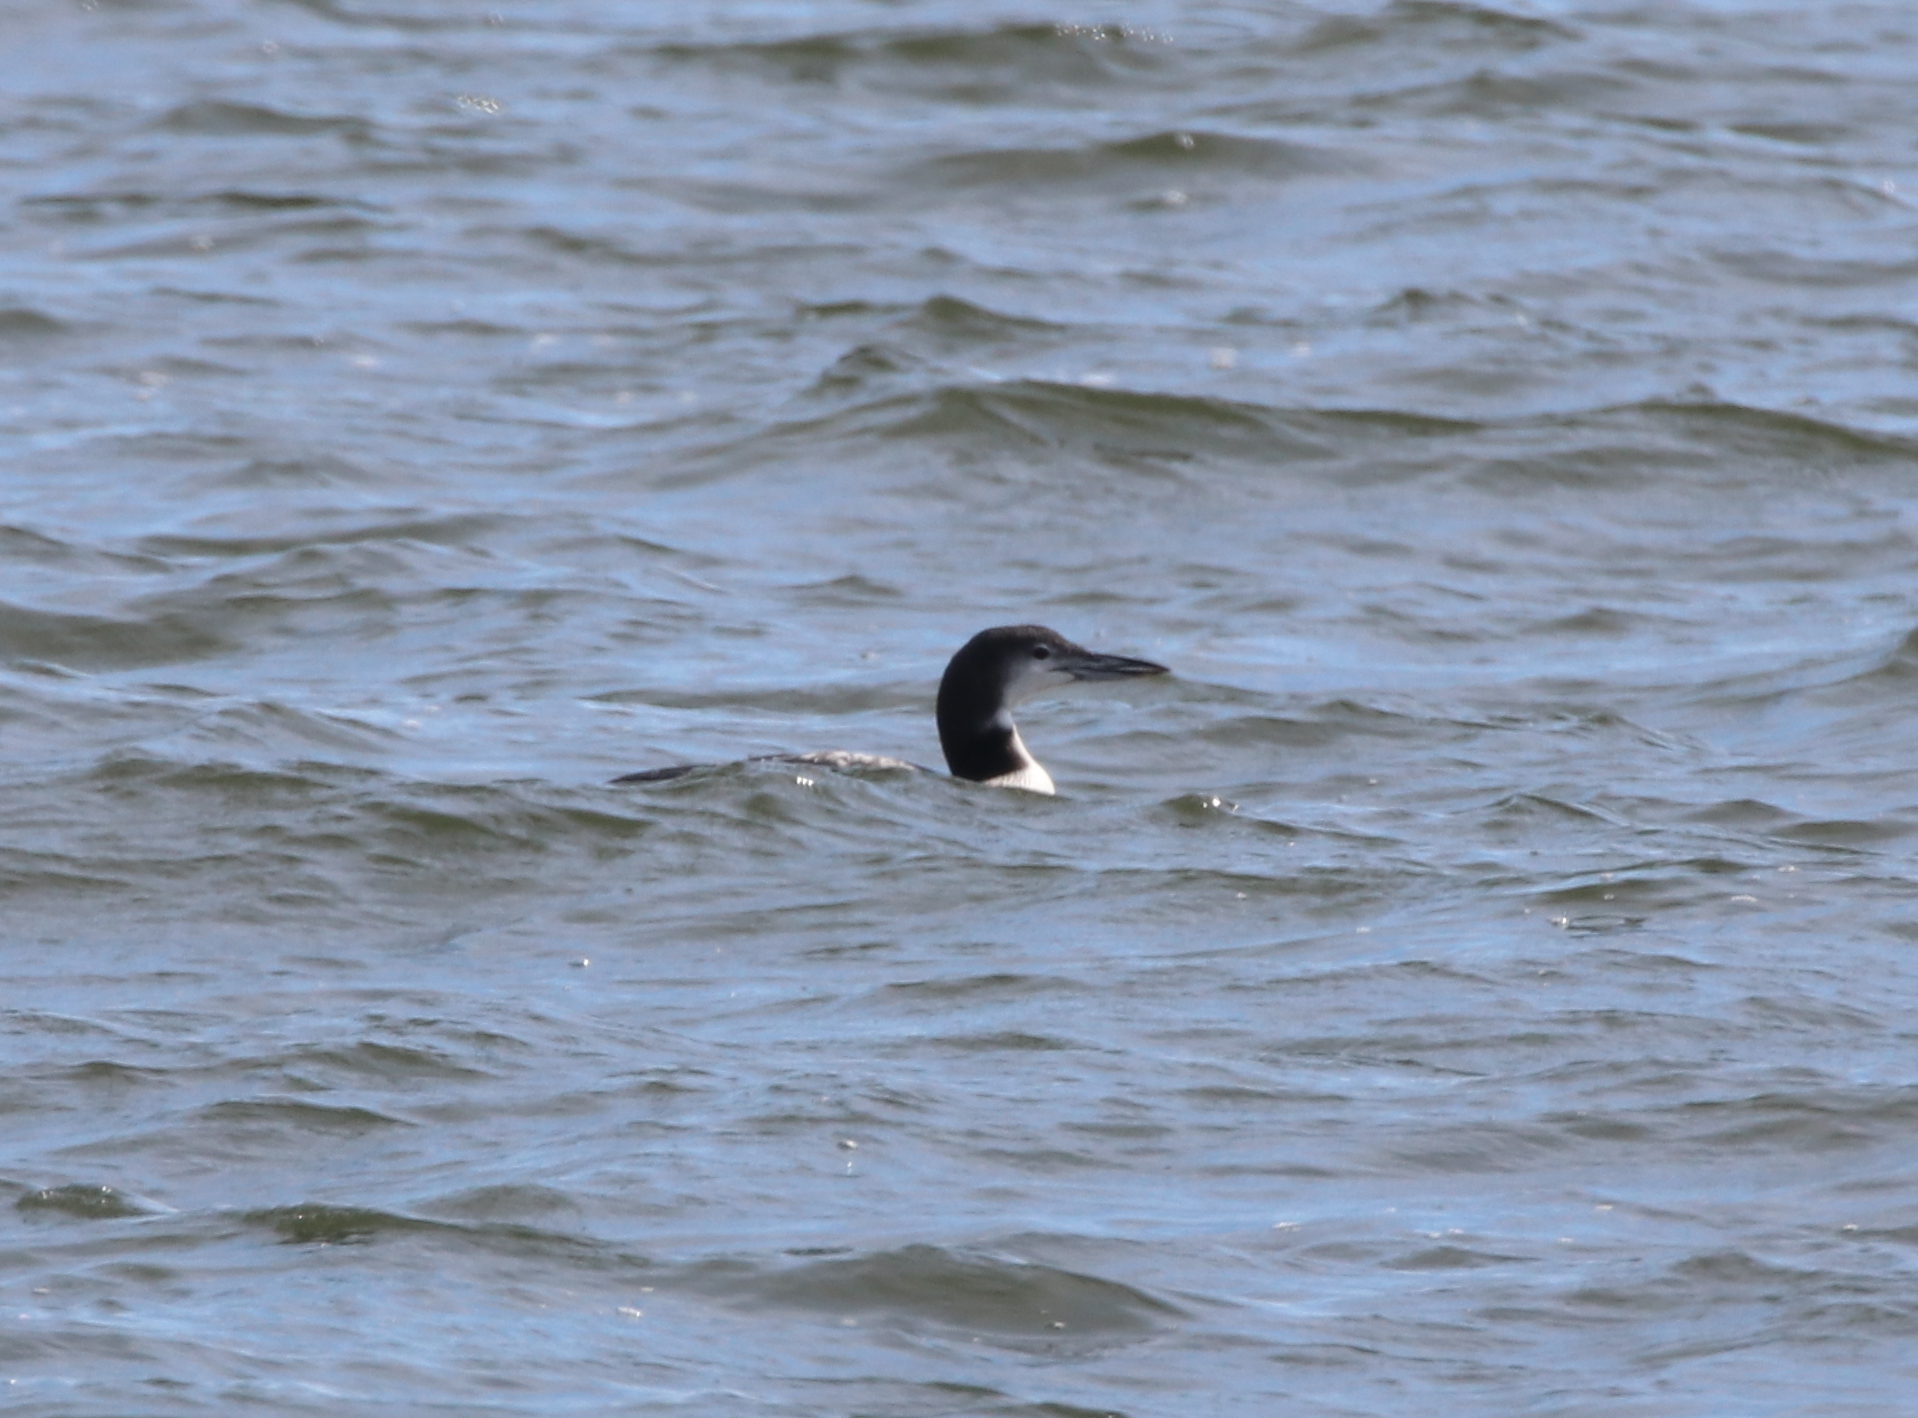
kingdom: Animalia
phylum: Chordata
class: Aves
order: Gaviiformes
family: Gaviidae
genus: Gavia
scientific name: Gavia immer
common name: Common loon
